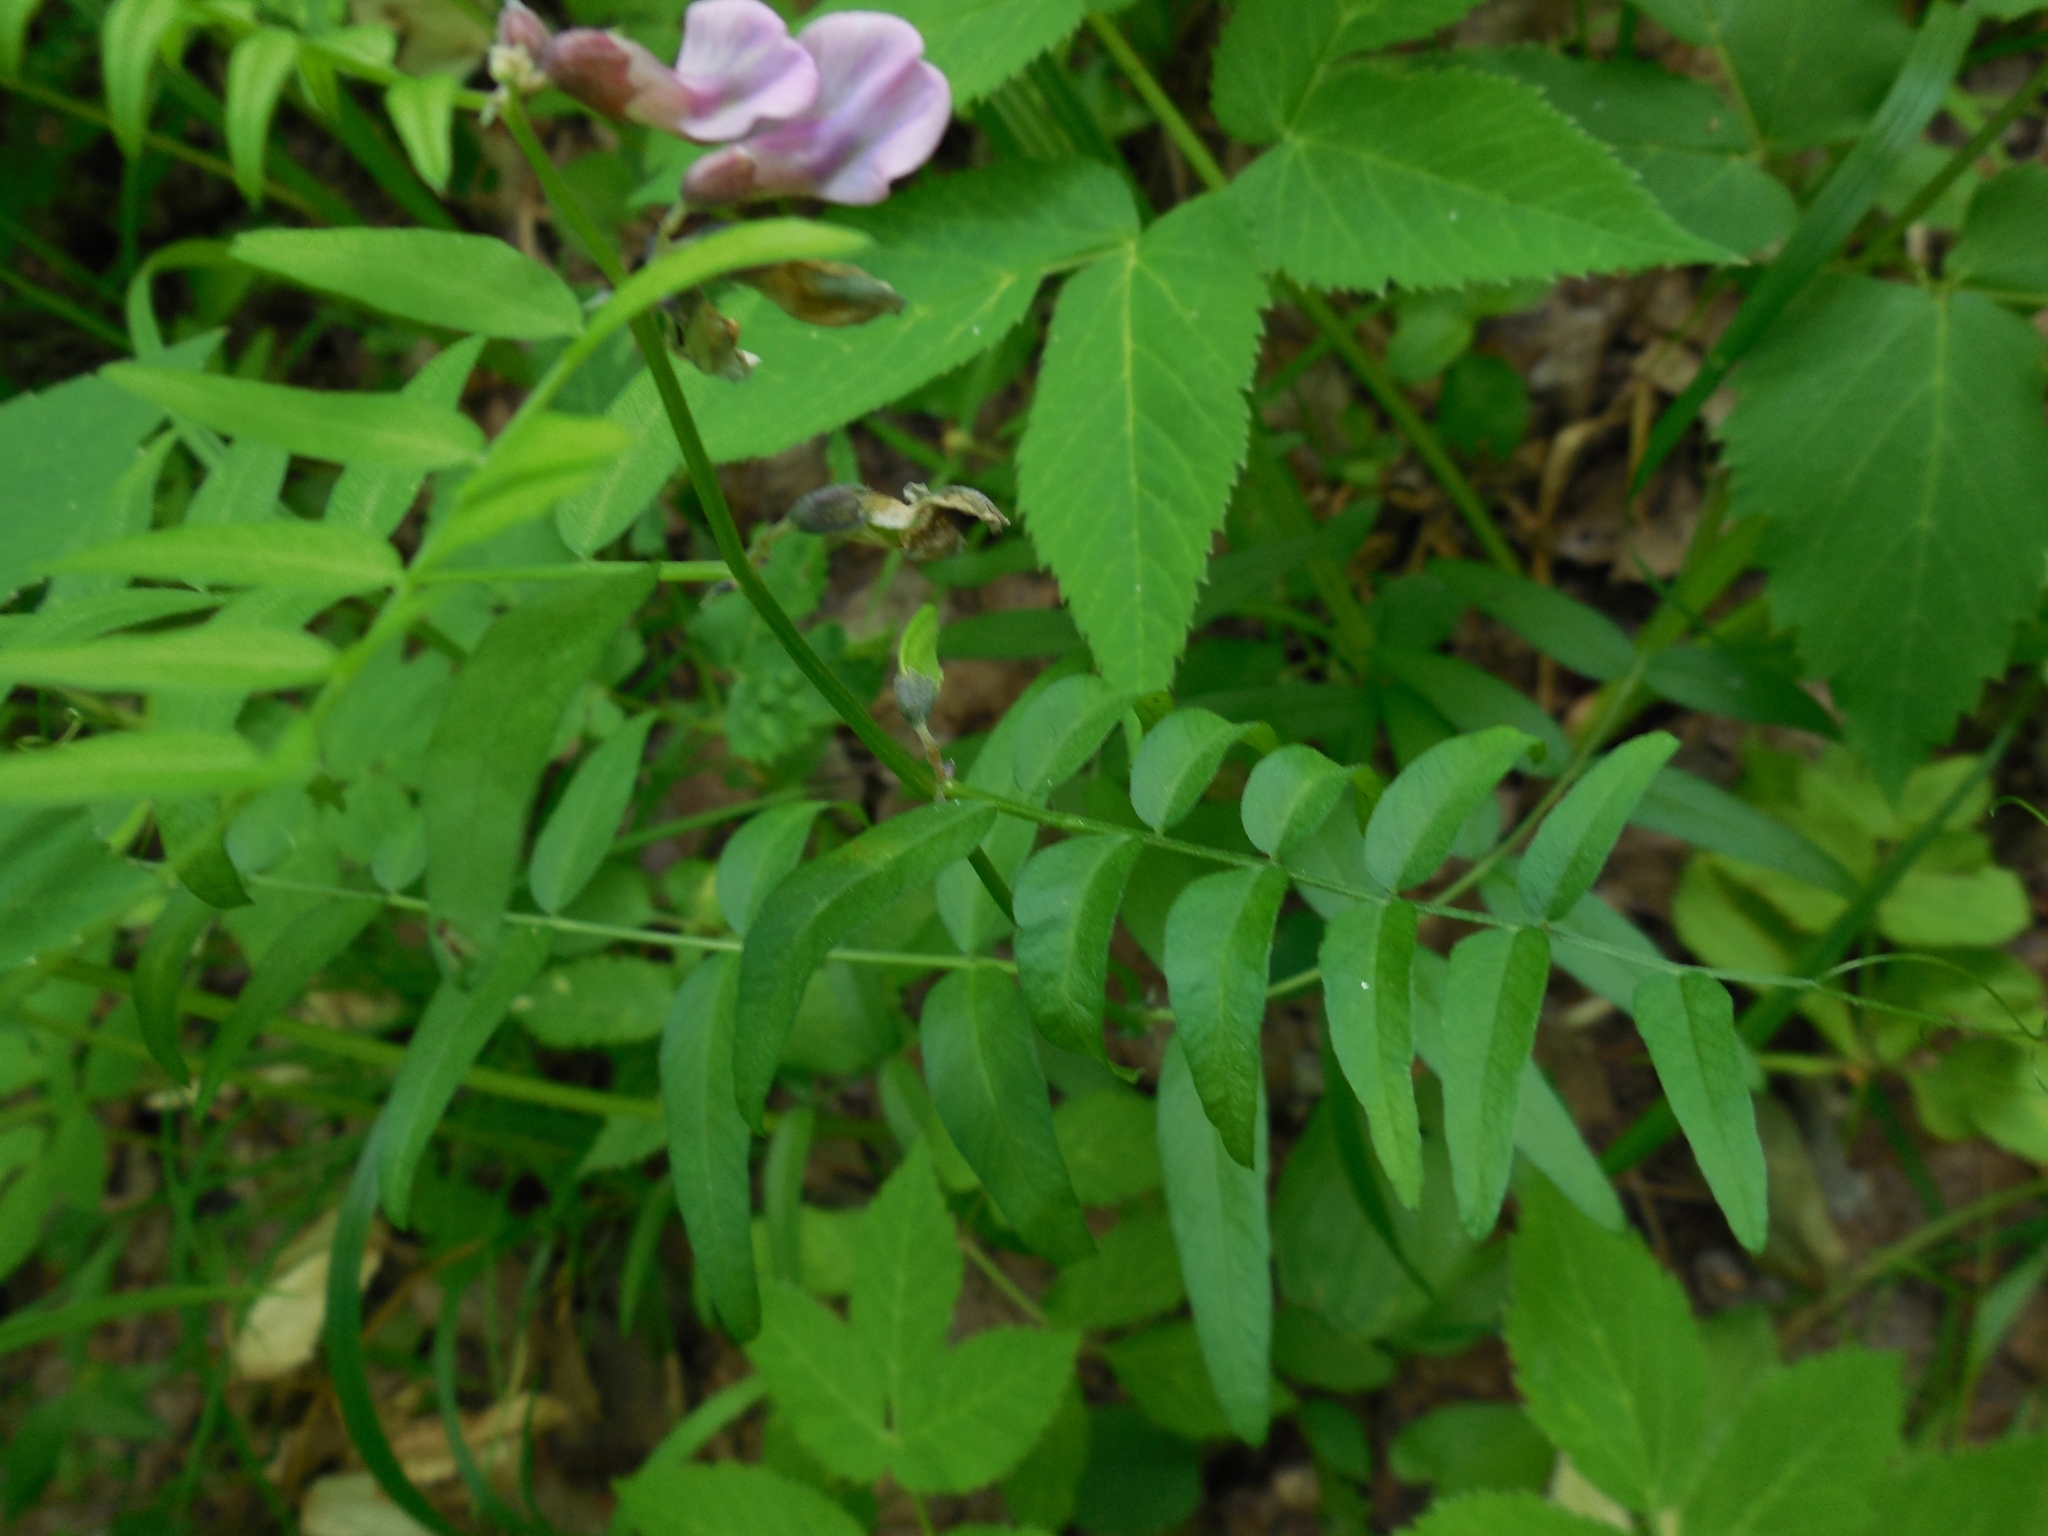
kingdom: Plantae
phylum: Tracheophyta
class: Magnoliopsida
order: Fabales
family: Fabaceae
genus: Vicia
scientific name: Vicia sepium
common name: Bush vetch
